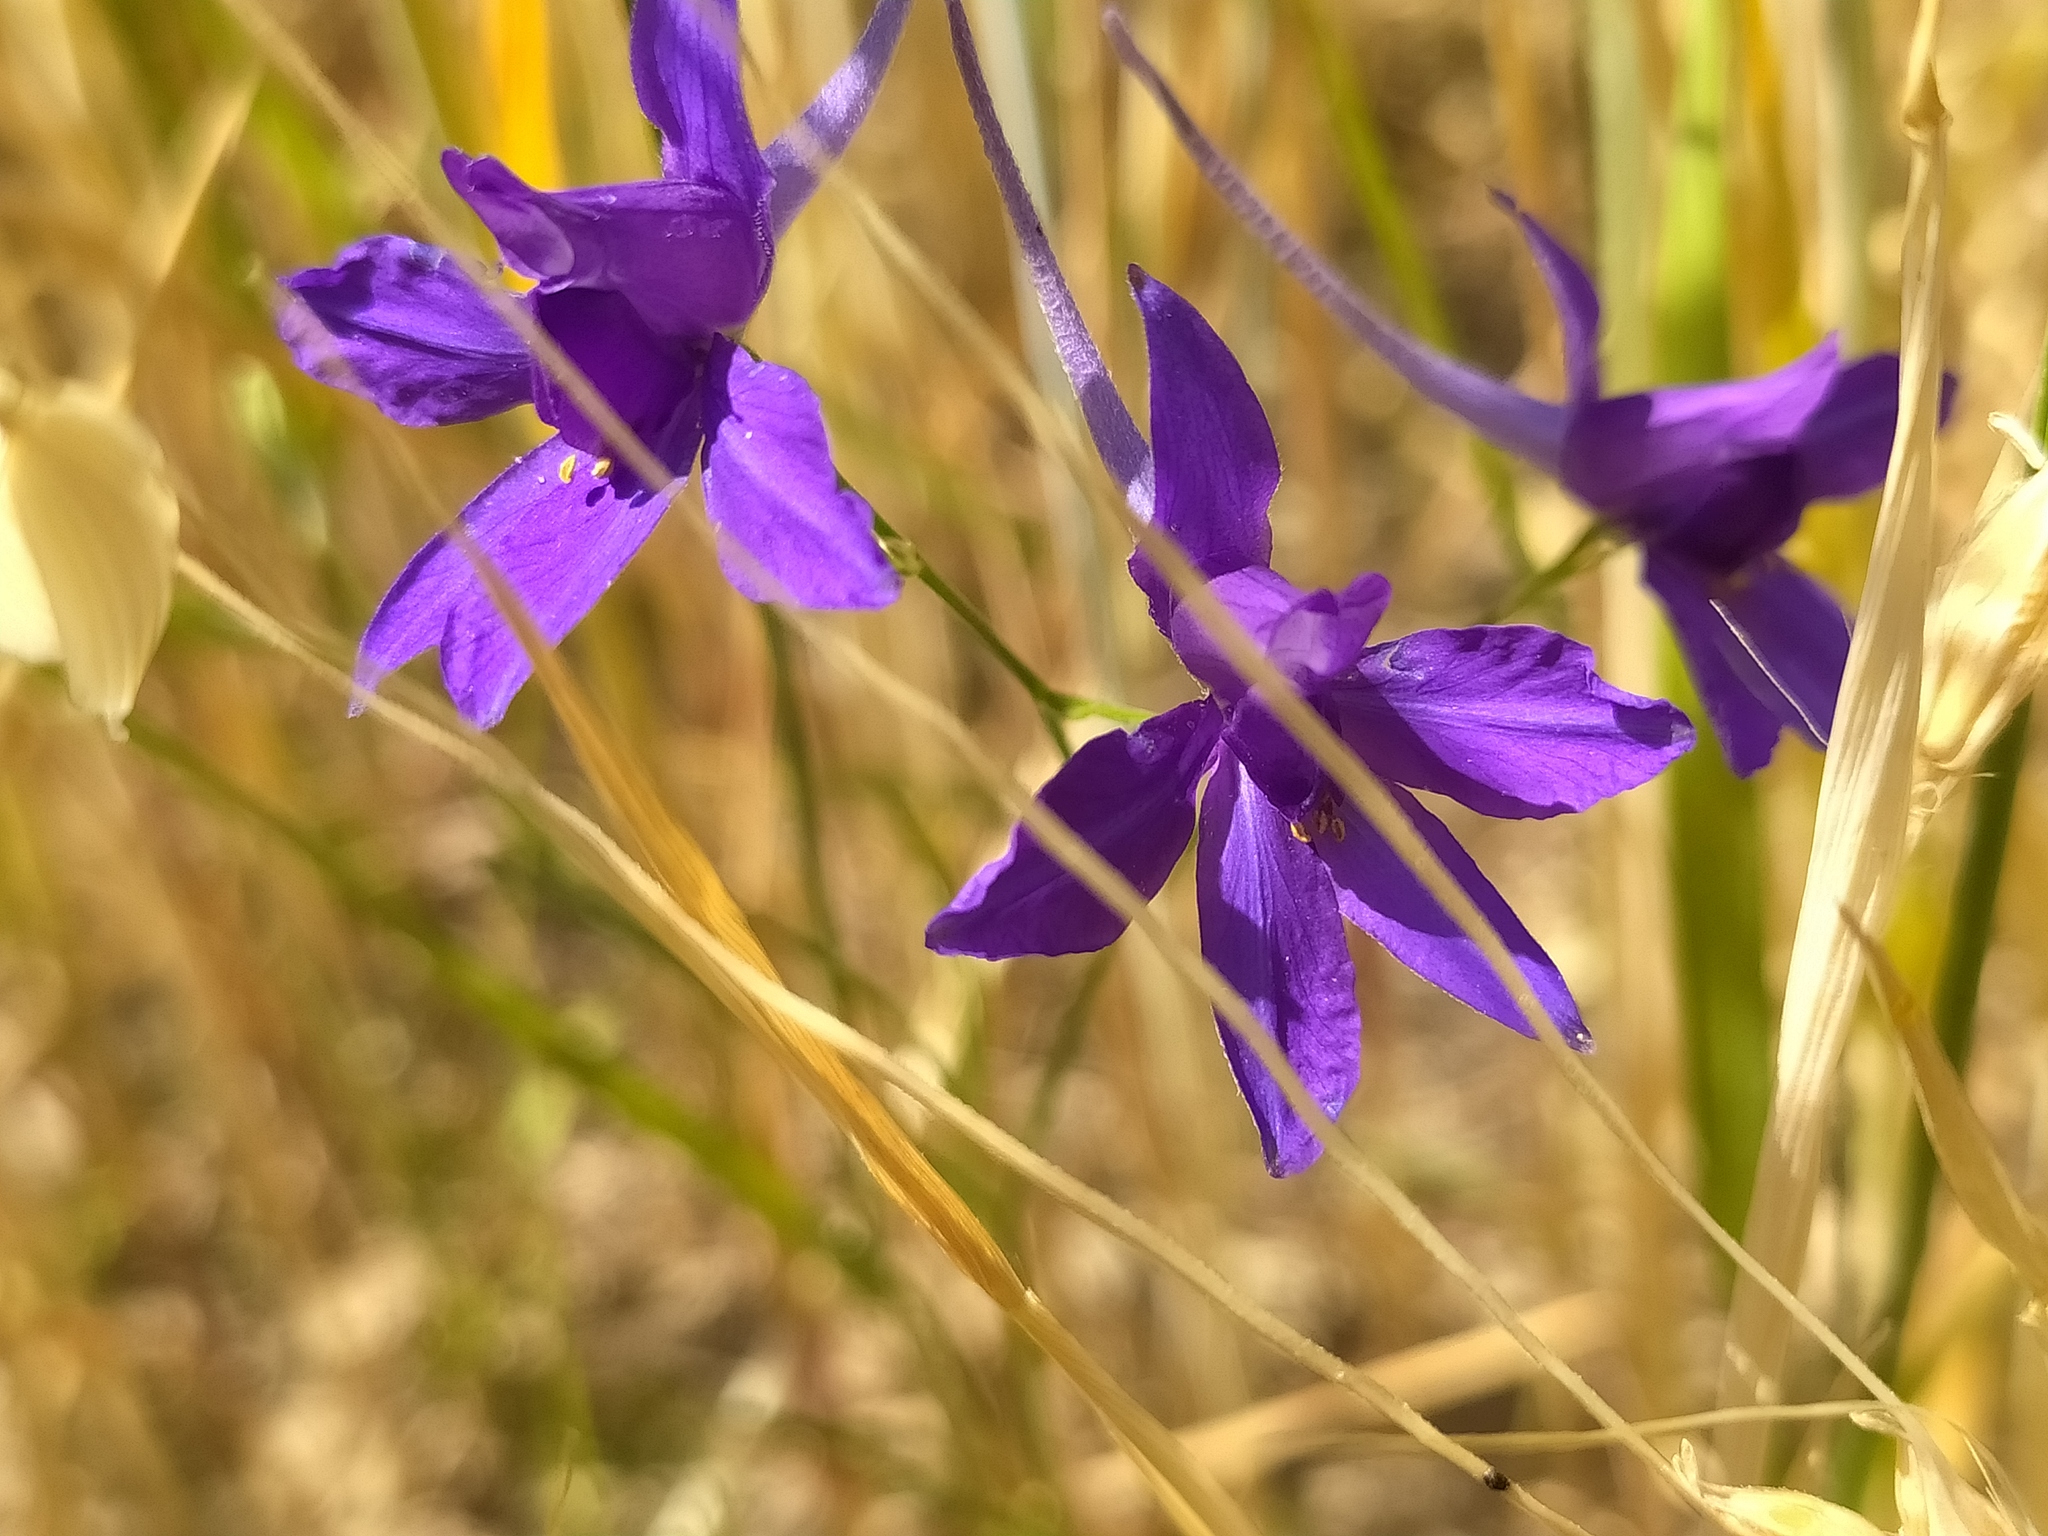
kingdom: Plantae
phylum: Tracheophyta
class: Magnoliopsida
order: Ranunculales
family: Ranunculaceae
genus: Delphinium
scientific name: Delphinium consolida
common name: Branching larkspur
